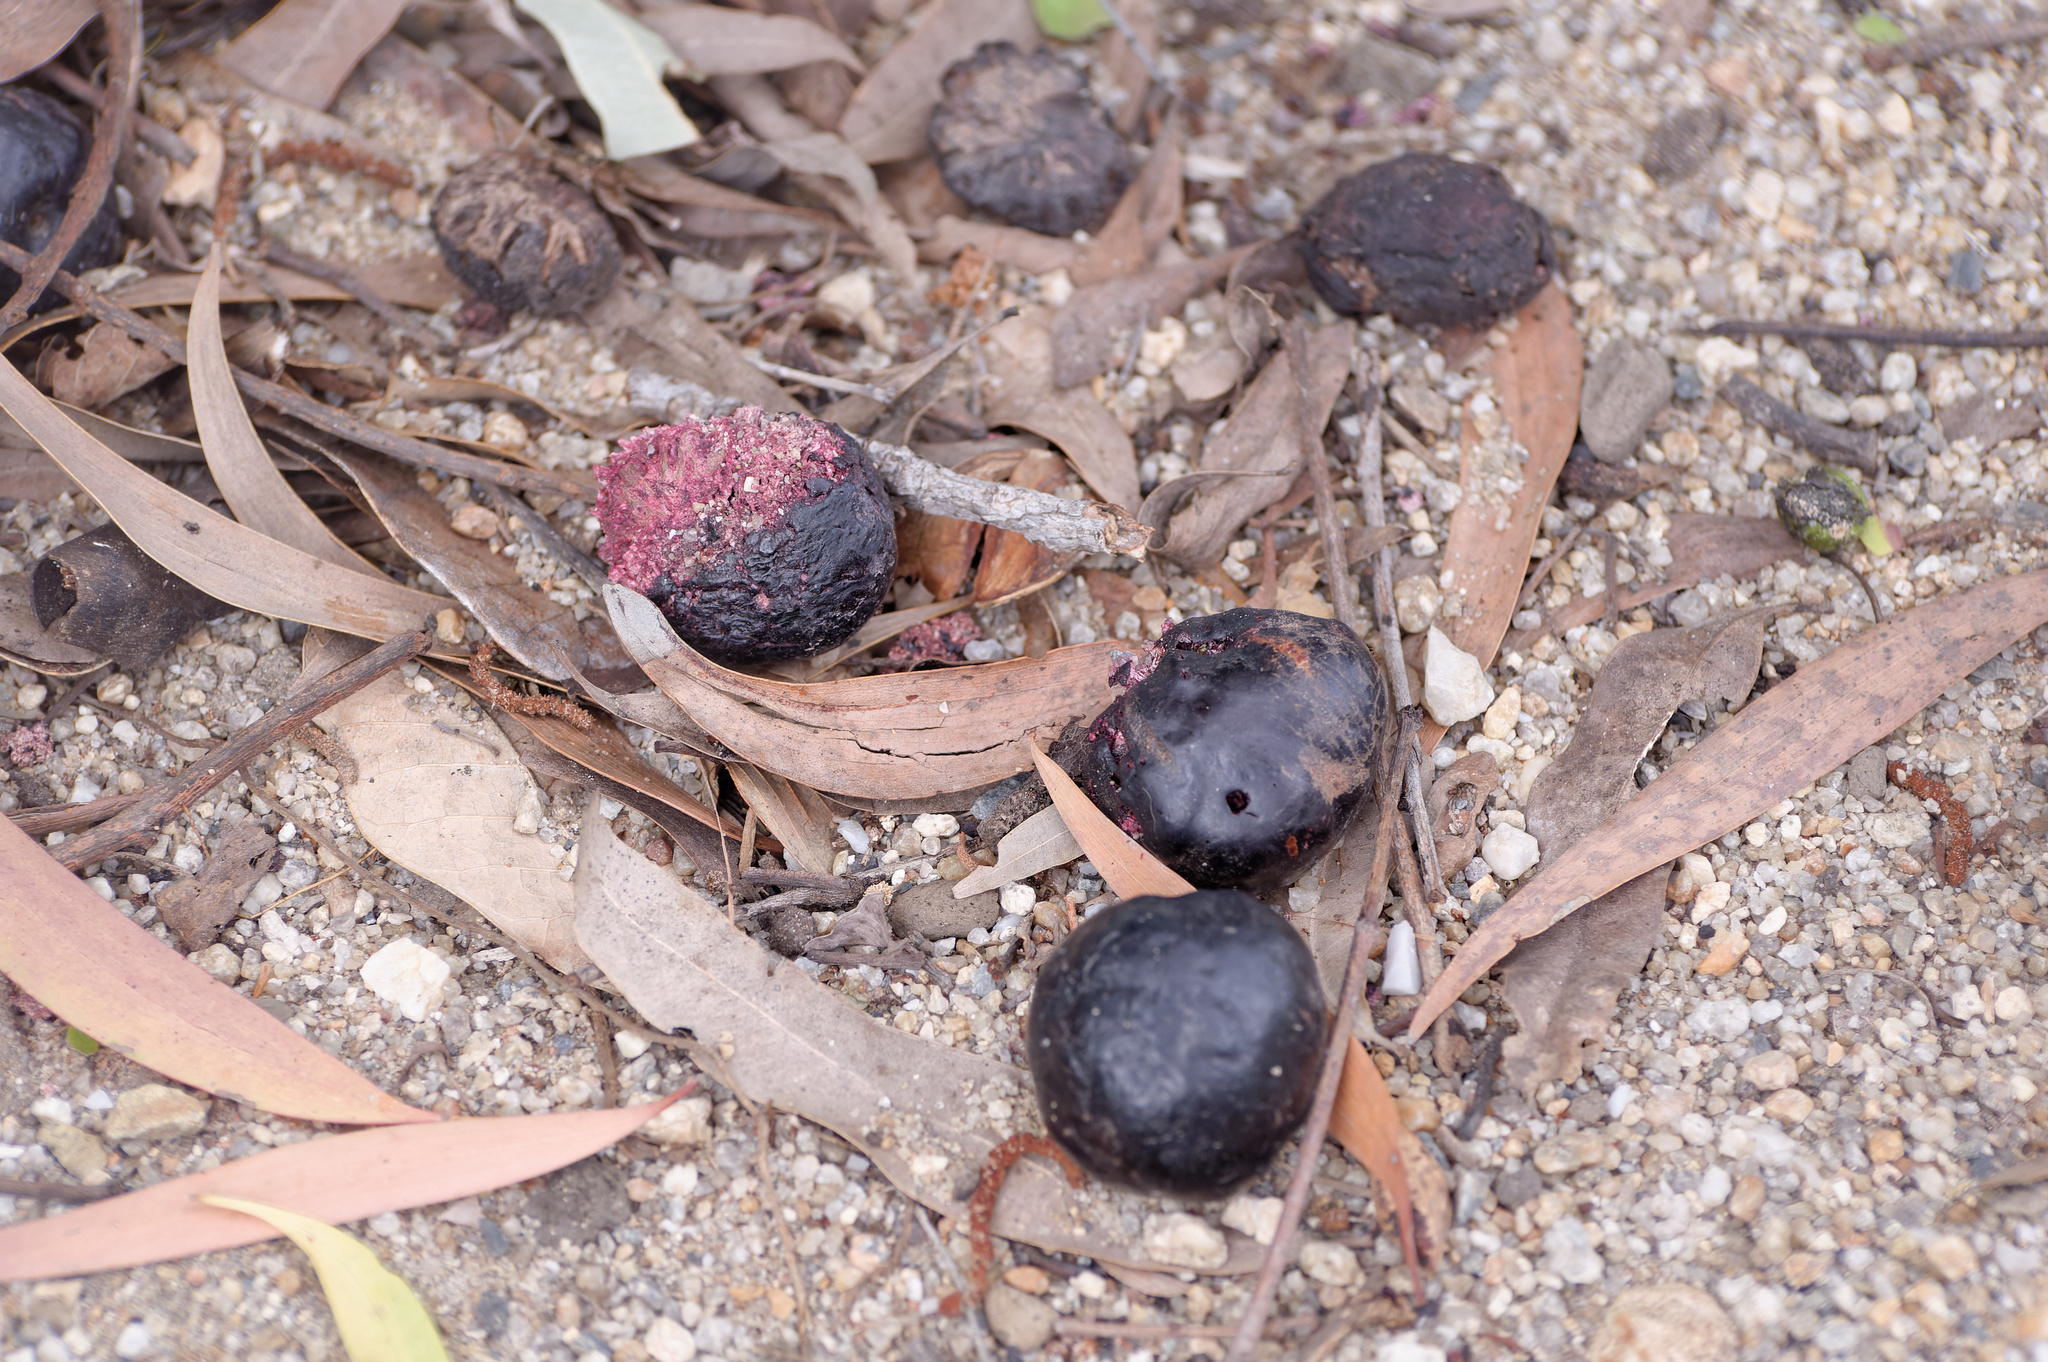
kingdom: Plantae
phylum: Tracheophyta
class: Magnoliopsida
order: Sapindales
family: Anacardiaceae
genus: Pleiogynium
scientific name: Pleiogynium timoriense
